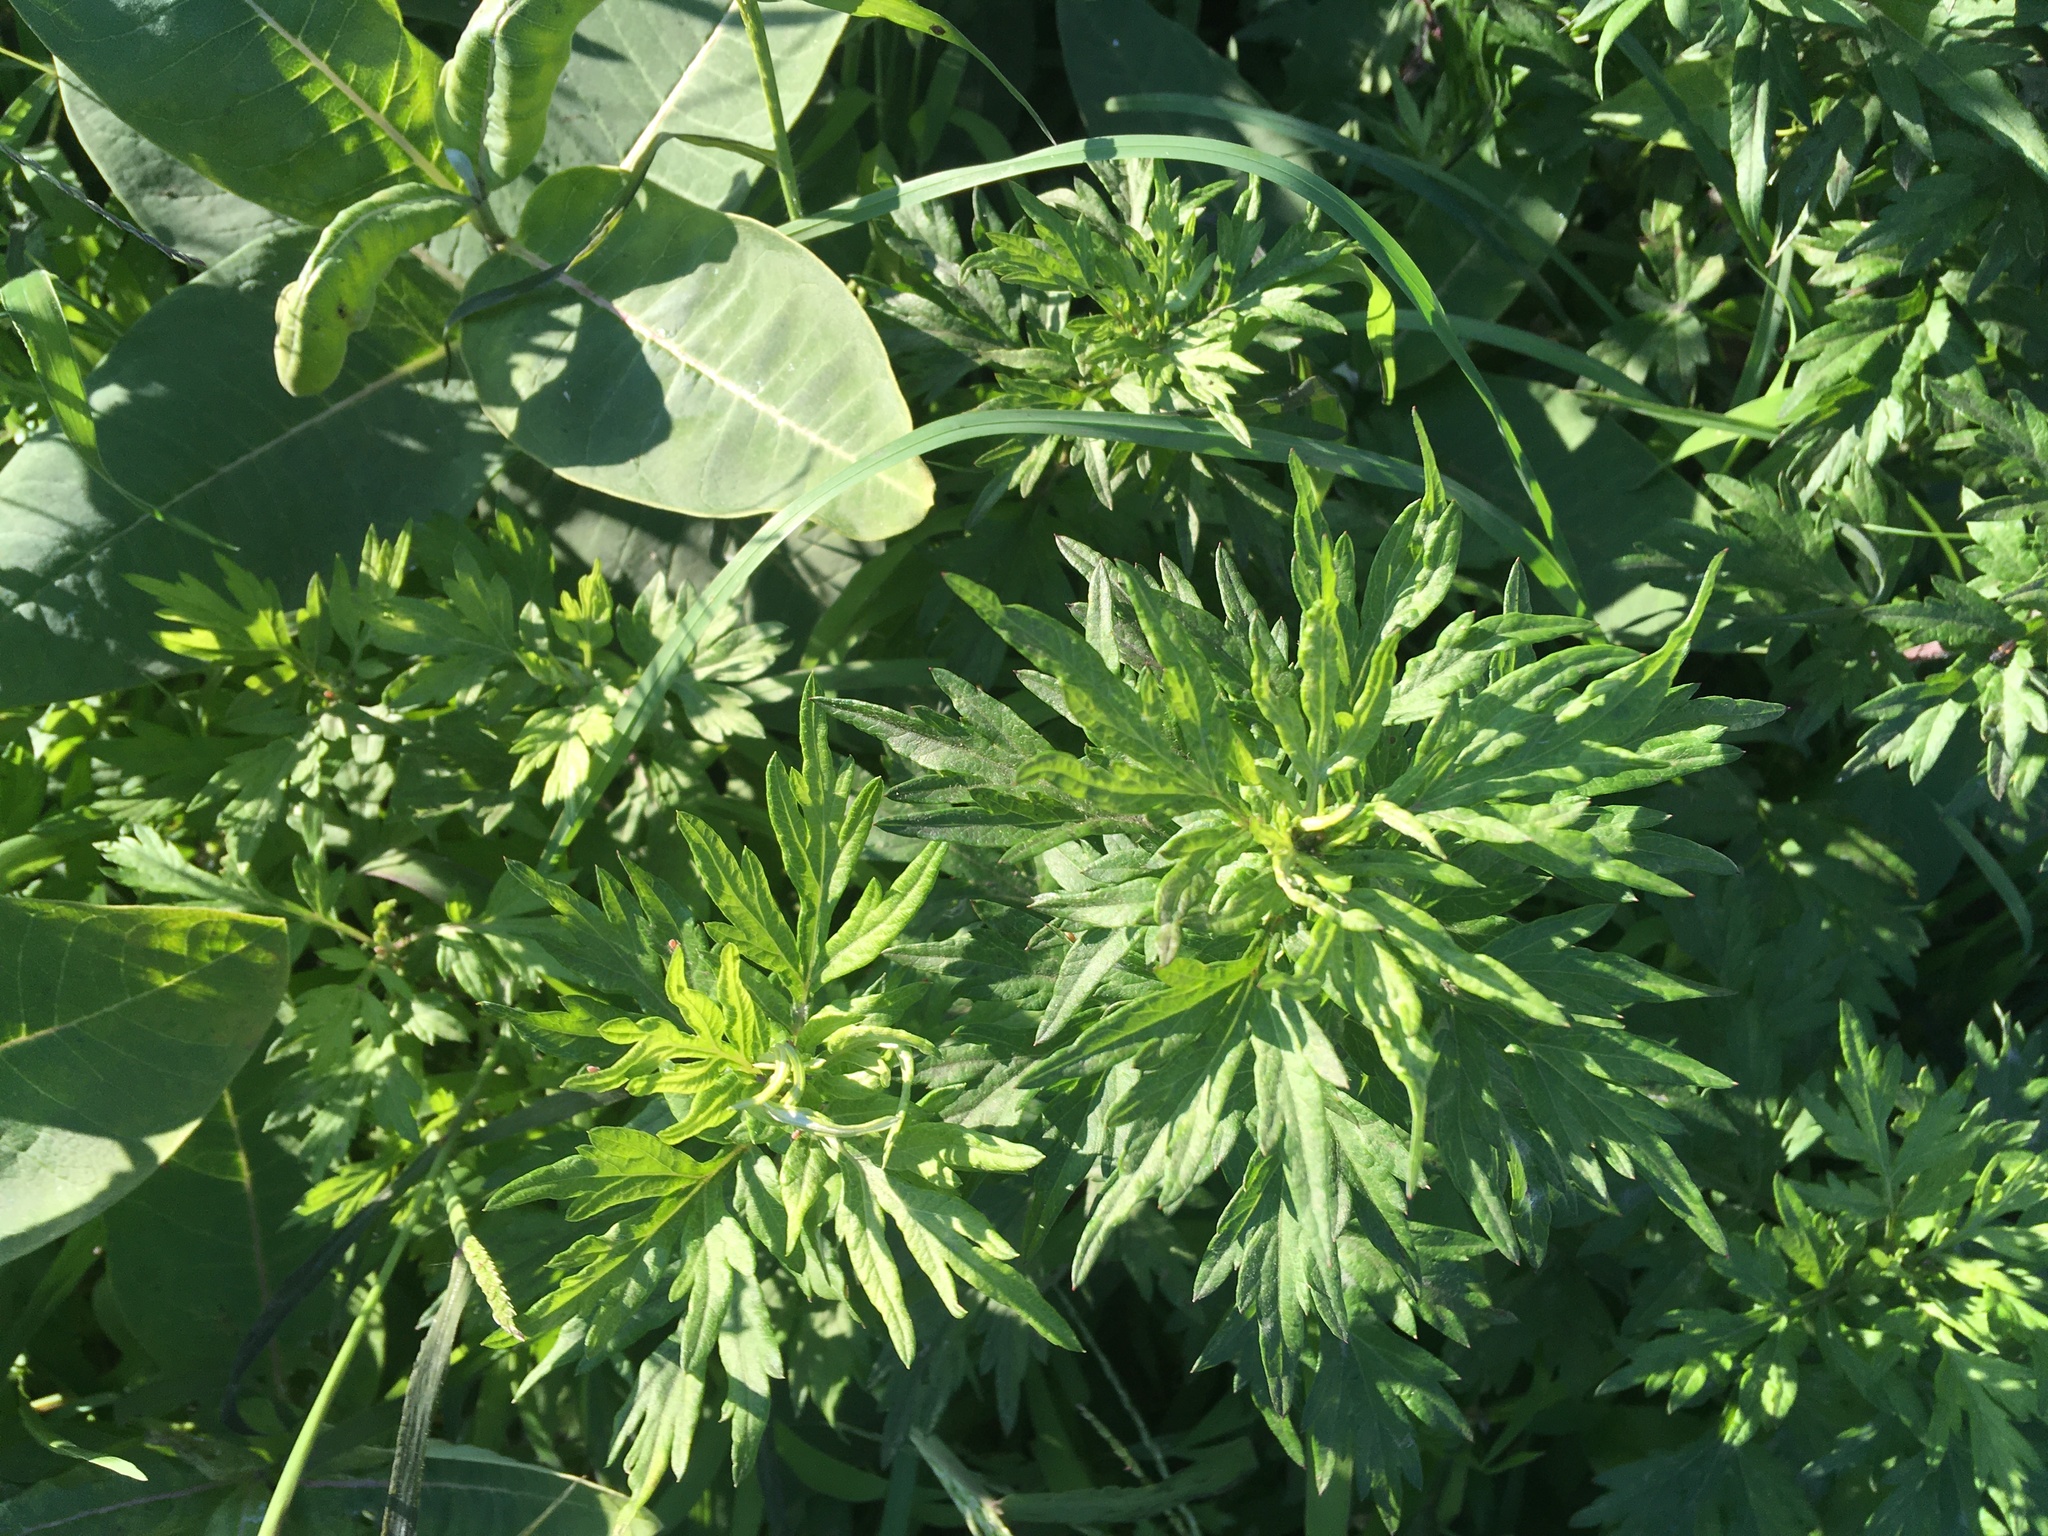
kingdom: Plantae
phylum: Tracheophyta
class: Magnoliopsida
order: Asterales
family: Asteraceae
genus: Artemisia
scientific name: Artemisia vulgaris
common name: Mugwort
